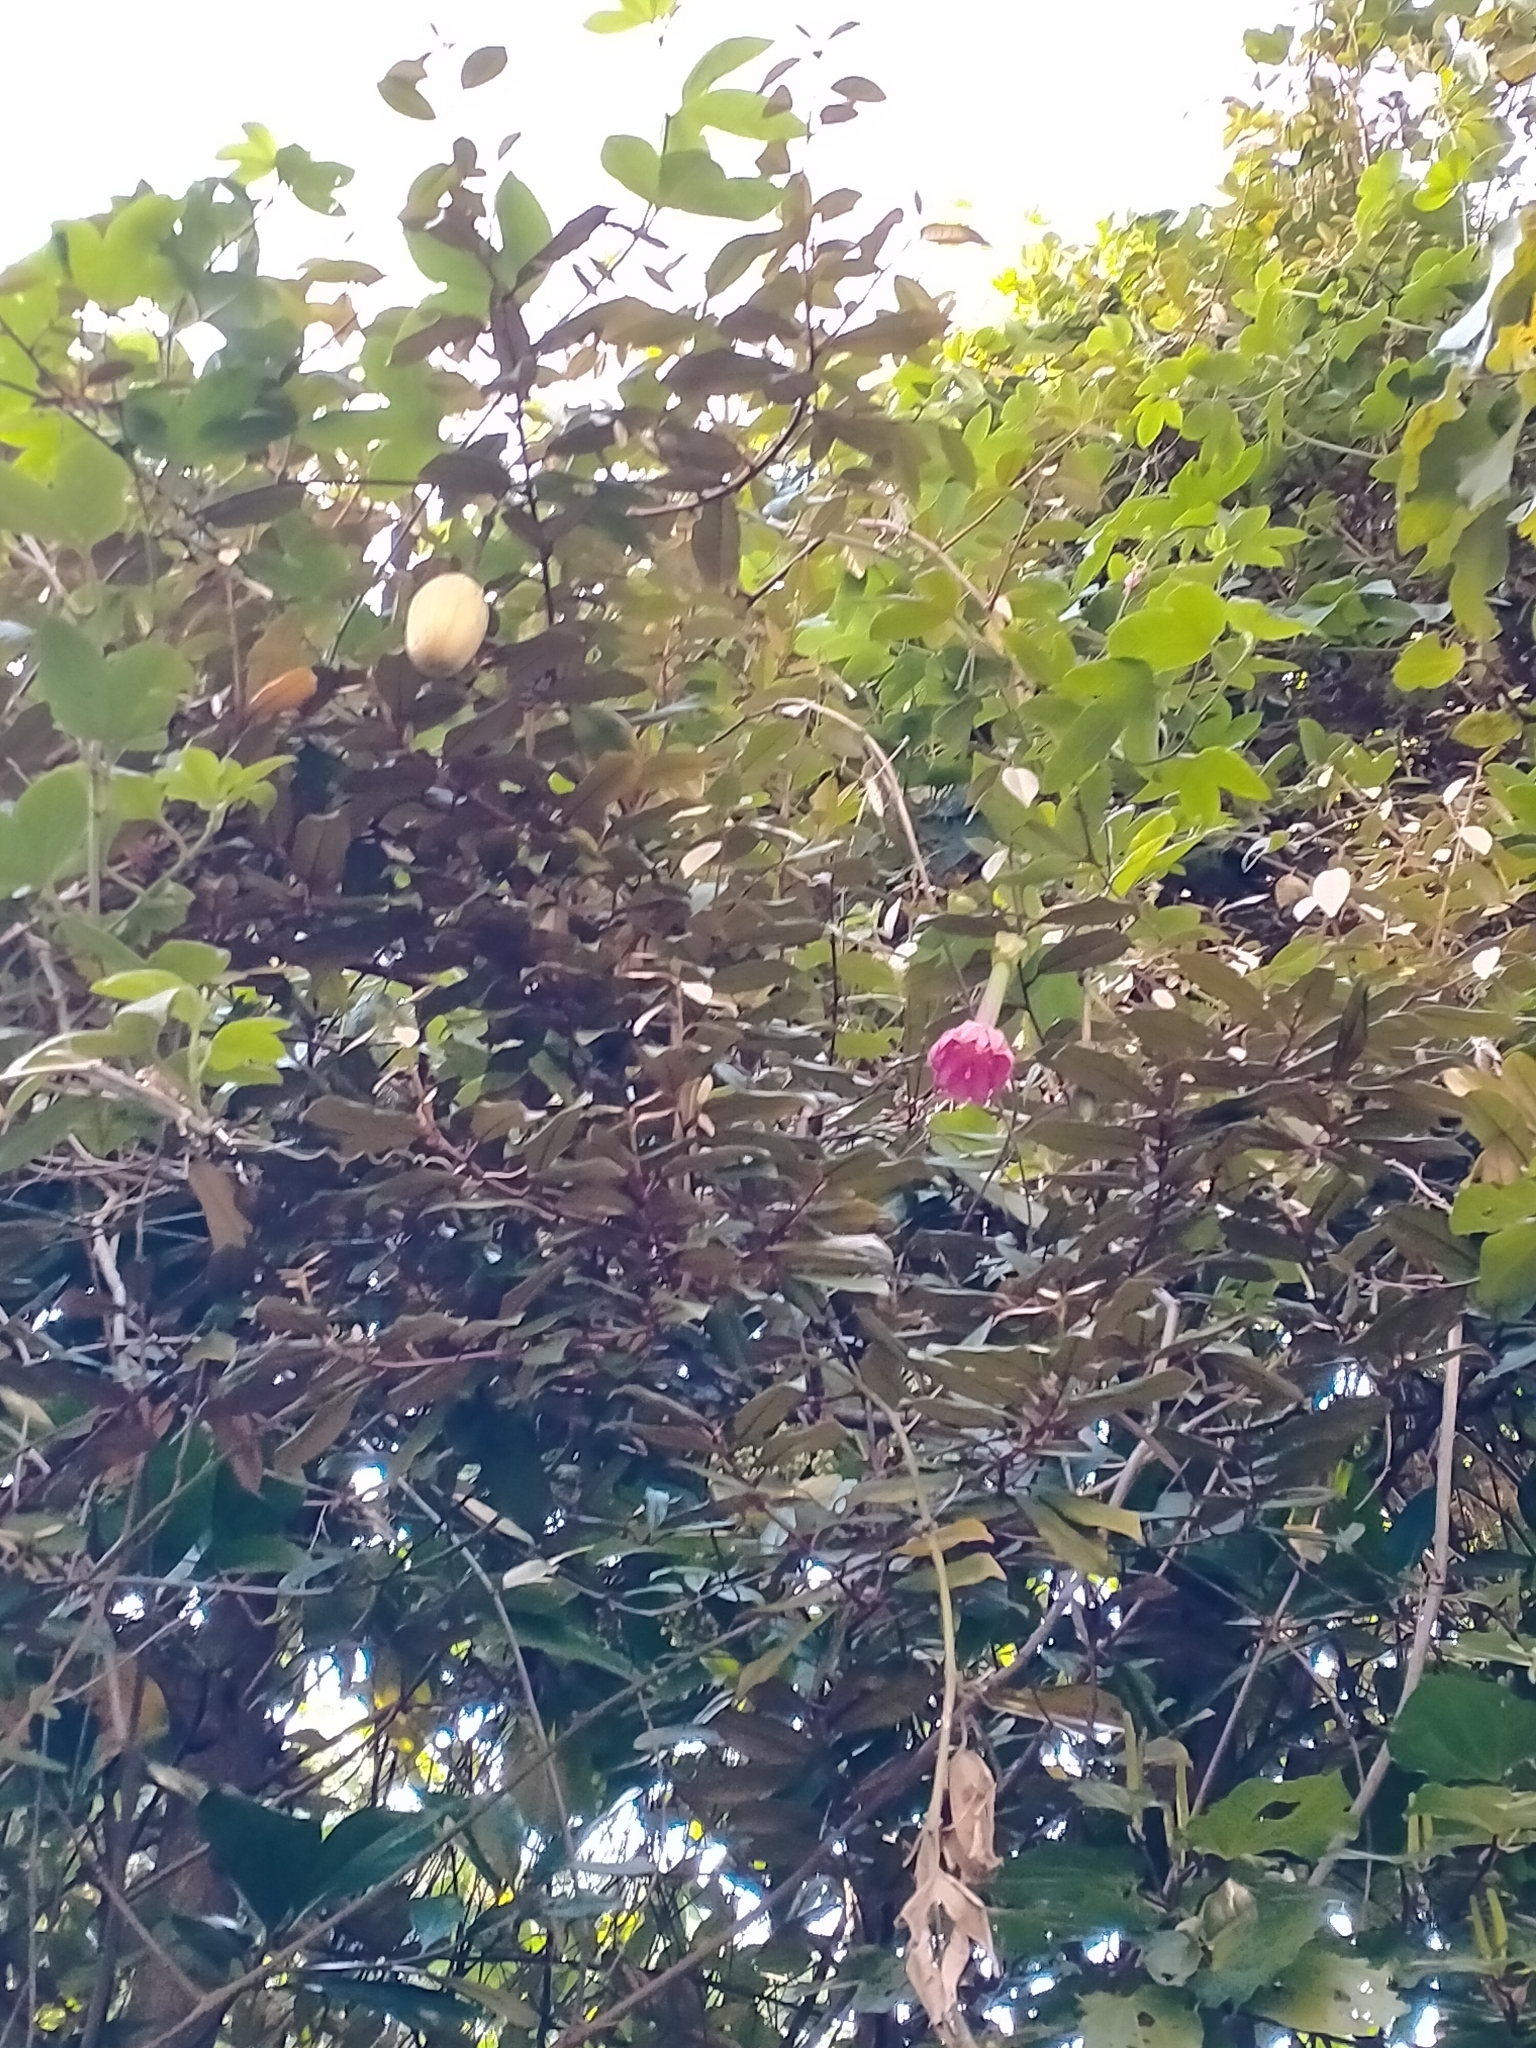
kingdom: Plantae
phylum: Tracheophyta
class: Magnoliopsida
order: Malpighiales
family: Passifloraceae
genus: Passiflora
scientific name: Passiflora tripartita
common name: Banana poka
